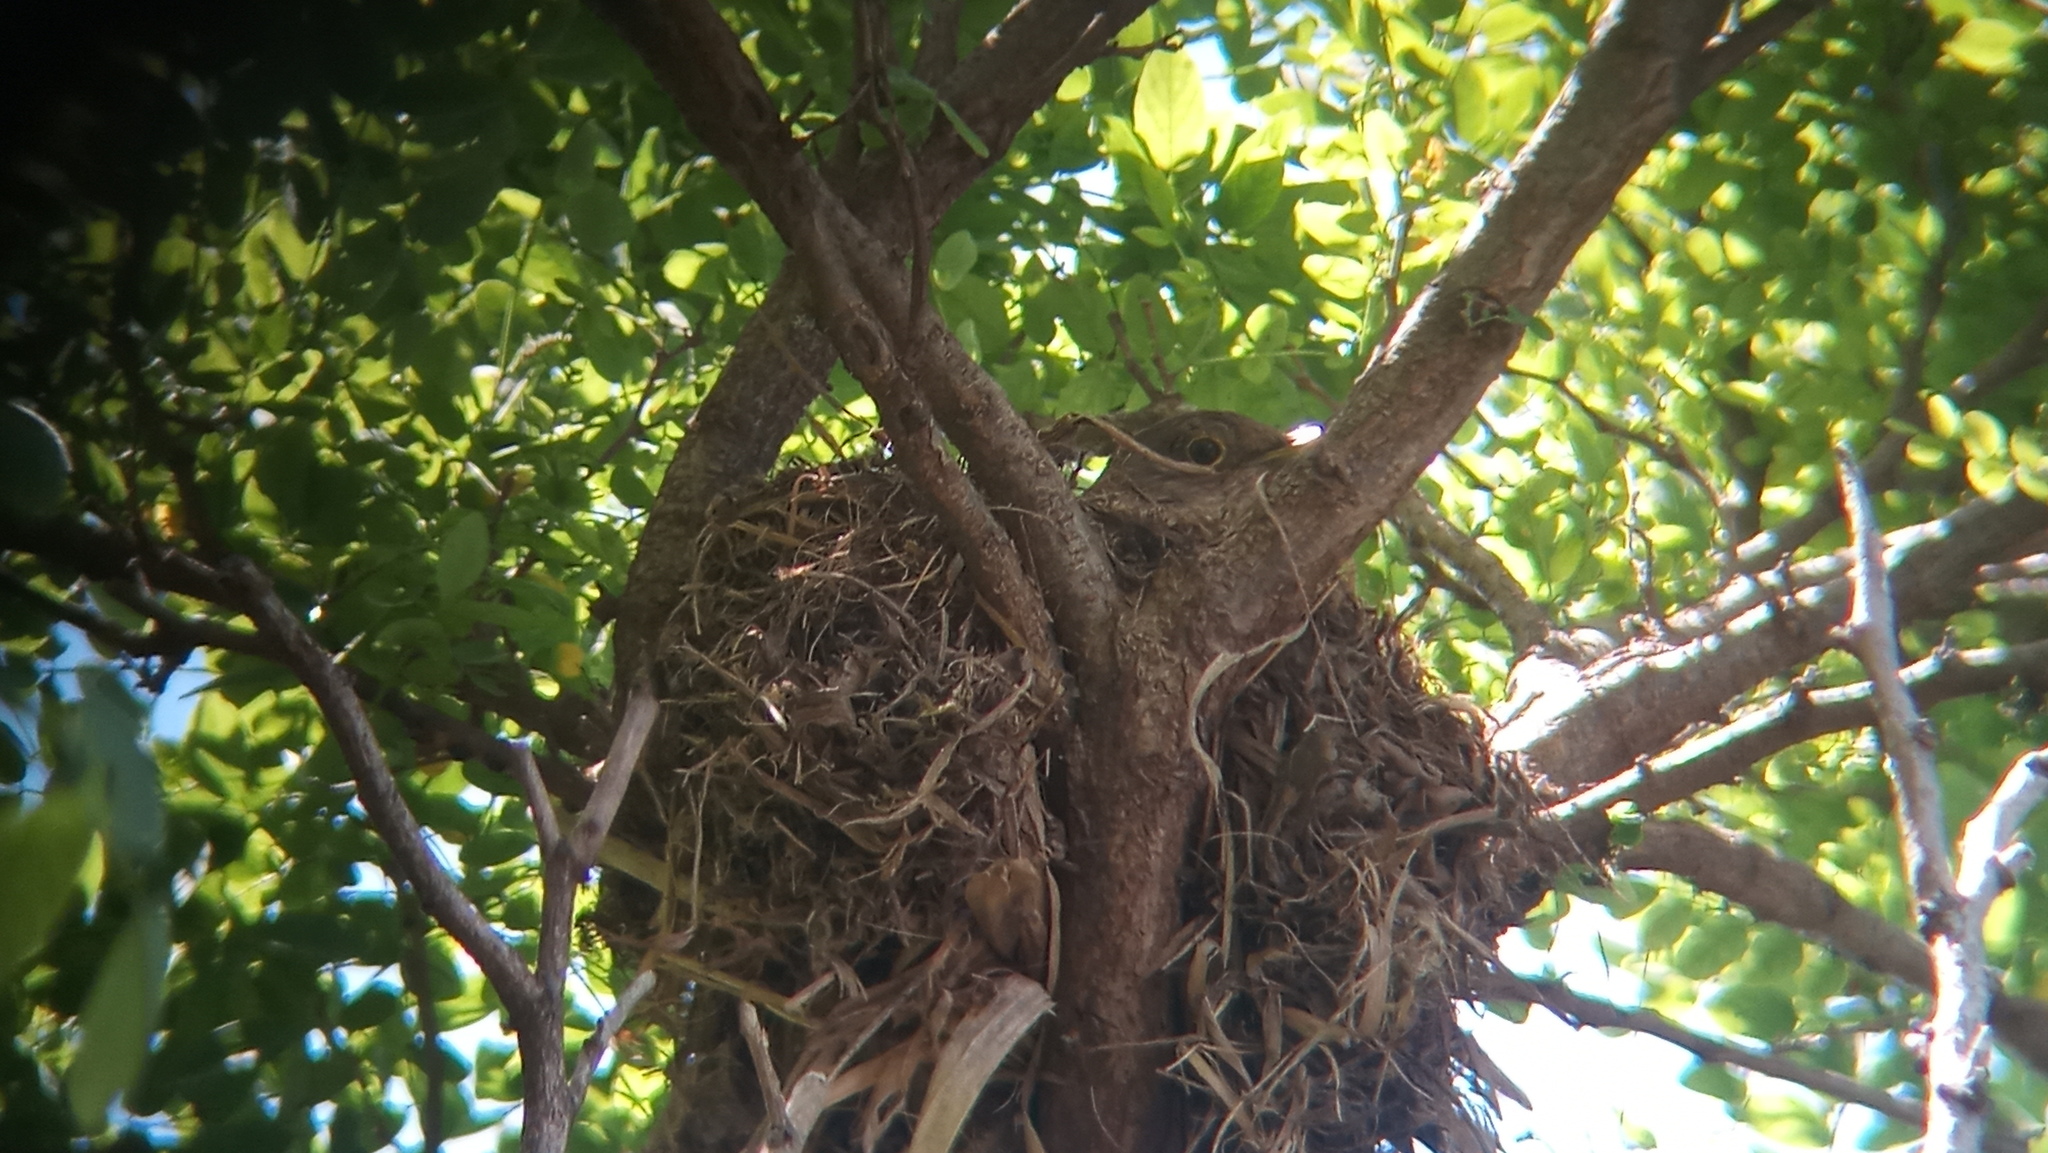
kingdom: Animalia
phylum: Chordata
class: Aves
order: Passeriformes
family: Turdidae
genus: Turdus
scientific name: Turdus rufiventris
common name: Rufous-bellied thrush
